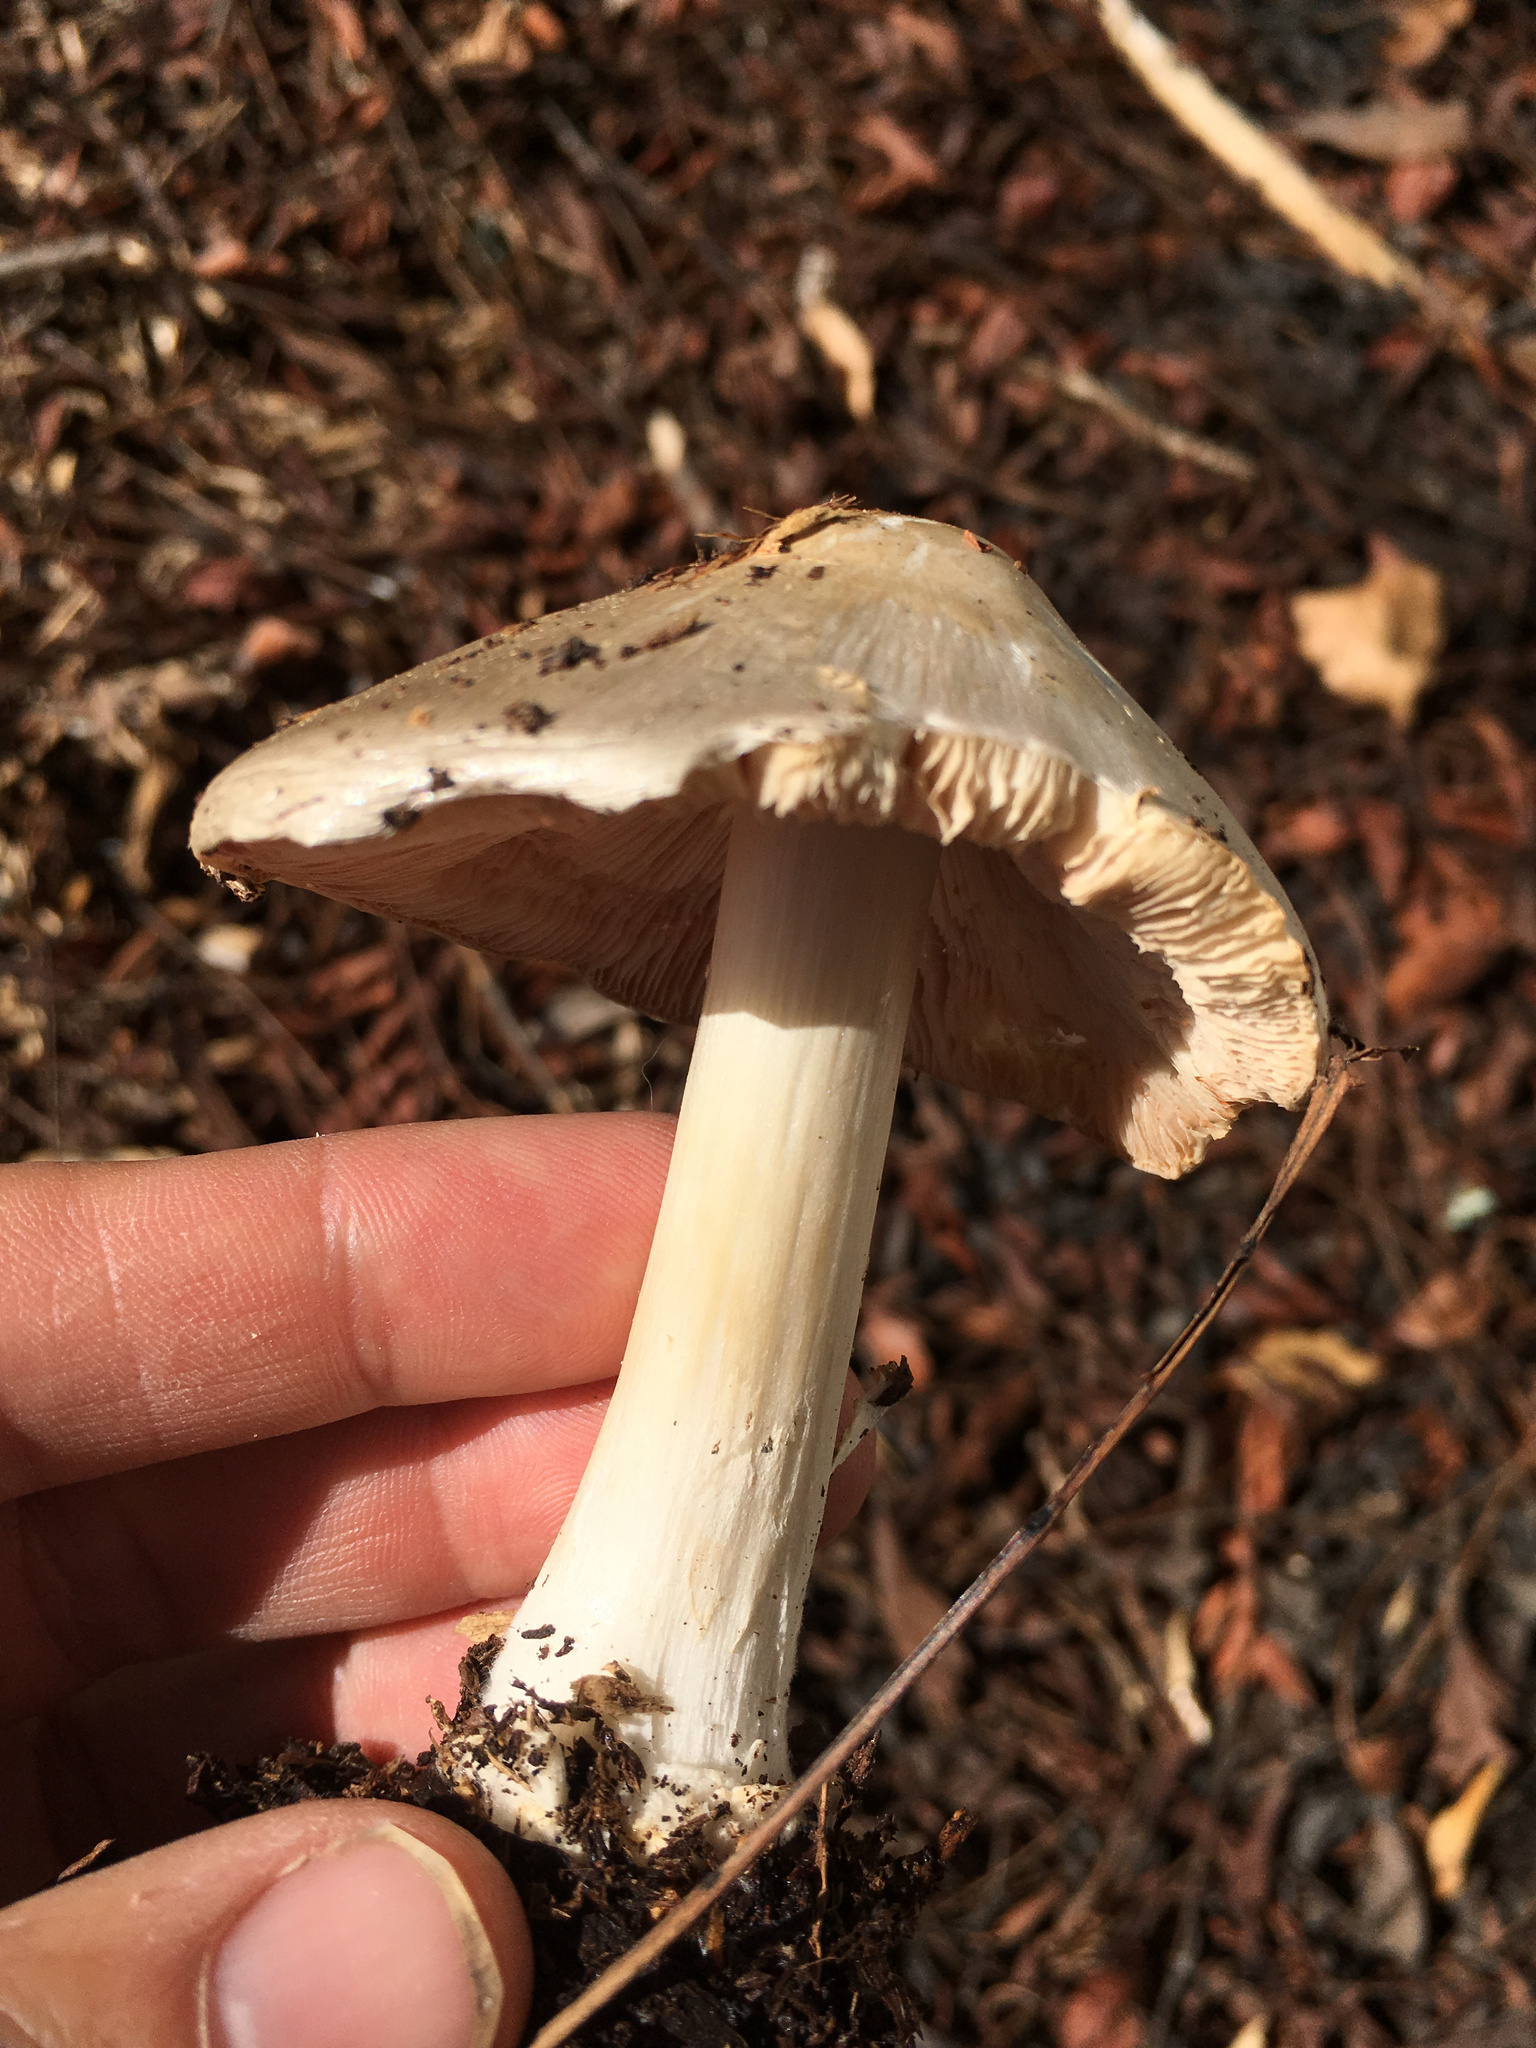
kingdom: Fungi
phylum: Basidiomycota
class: Agaricomycetes
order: Agaricales
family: Pluteaceae
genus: Volvopluteus
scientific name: Volvopluteus gloiocephalus
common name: Stubble rosegill
